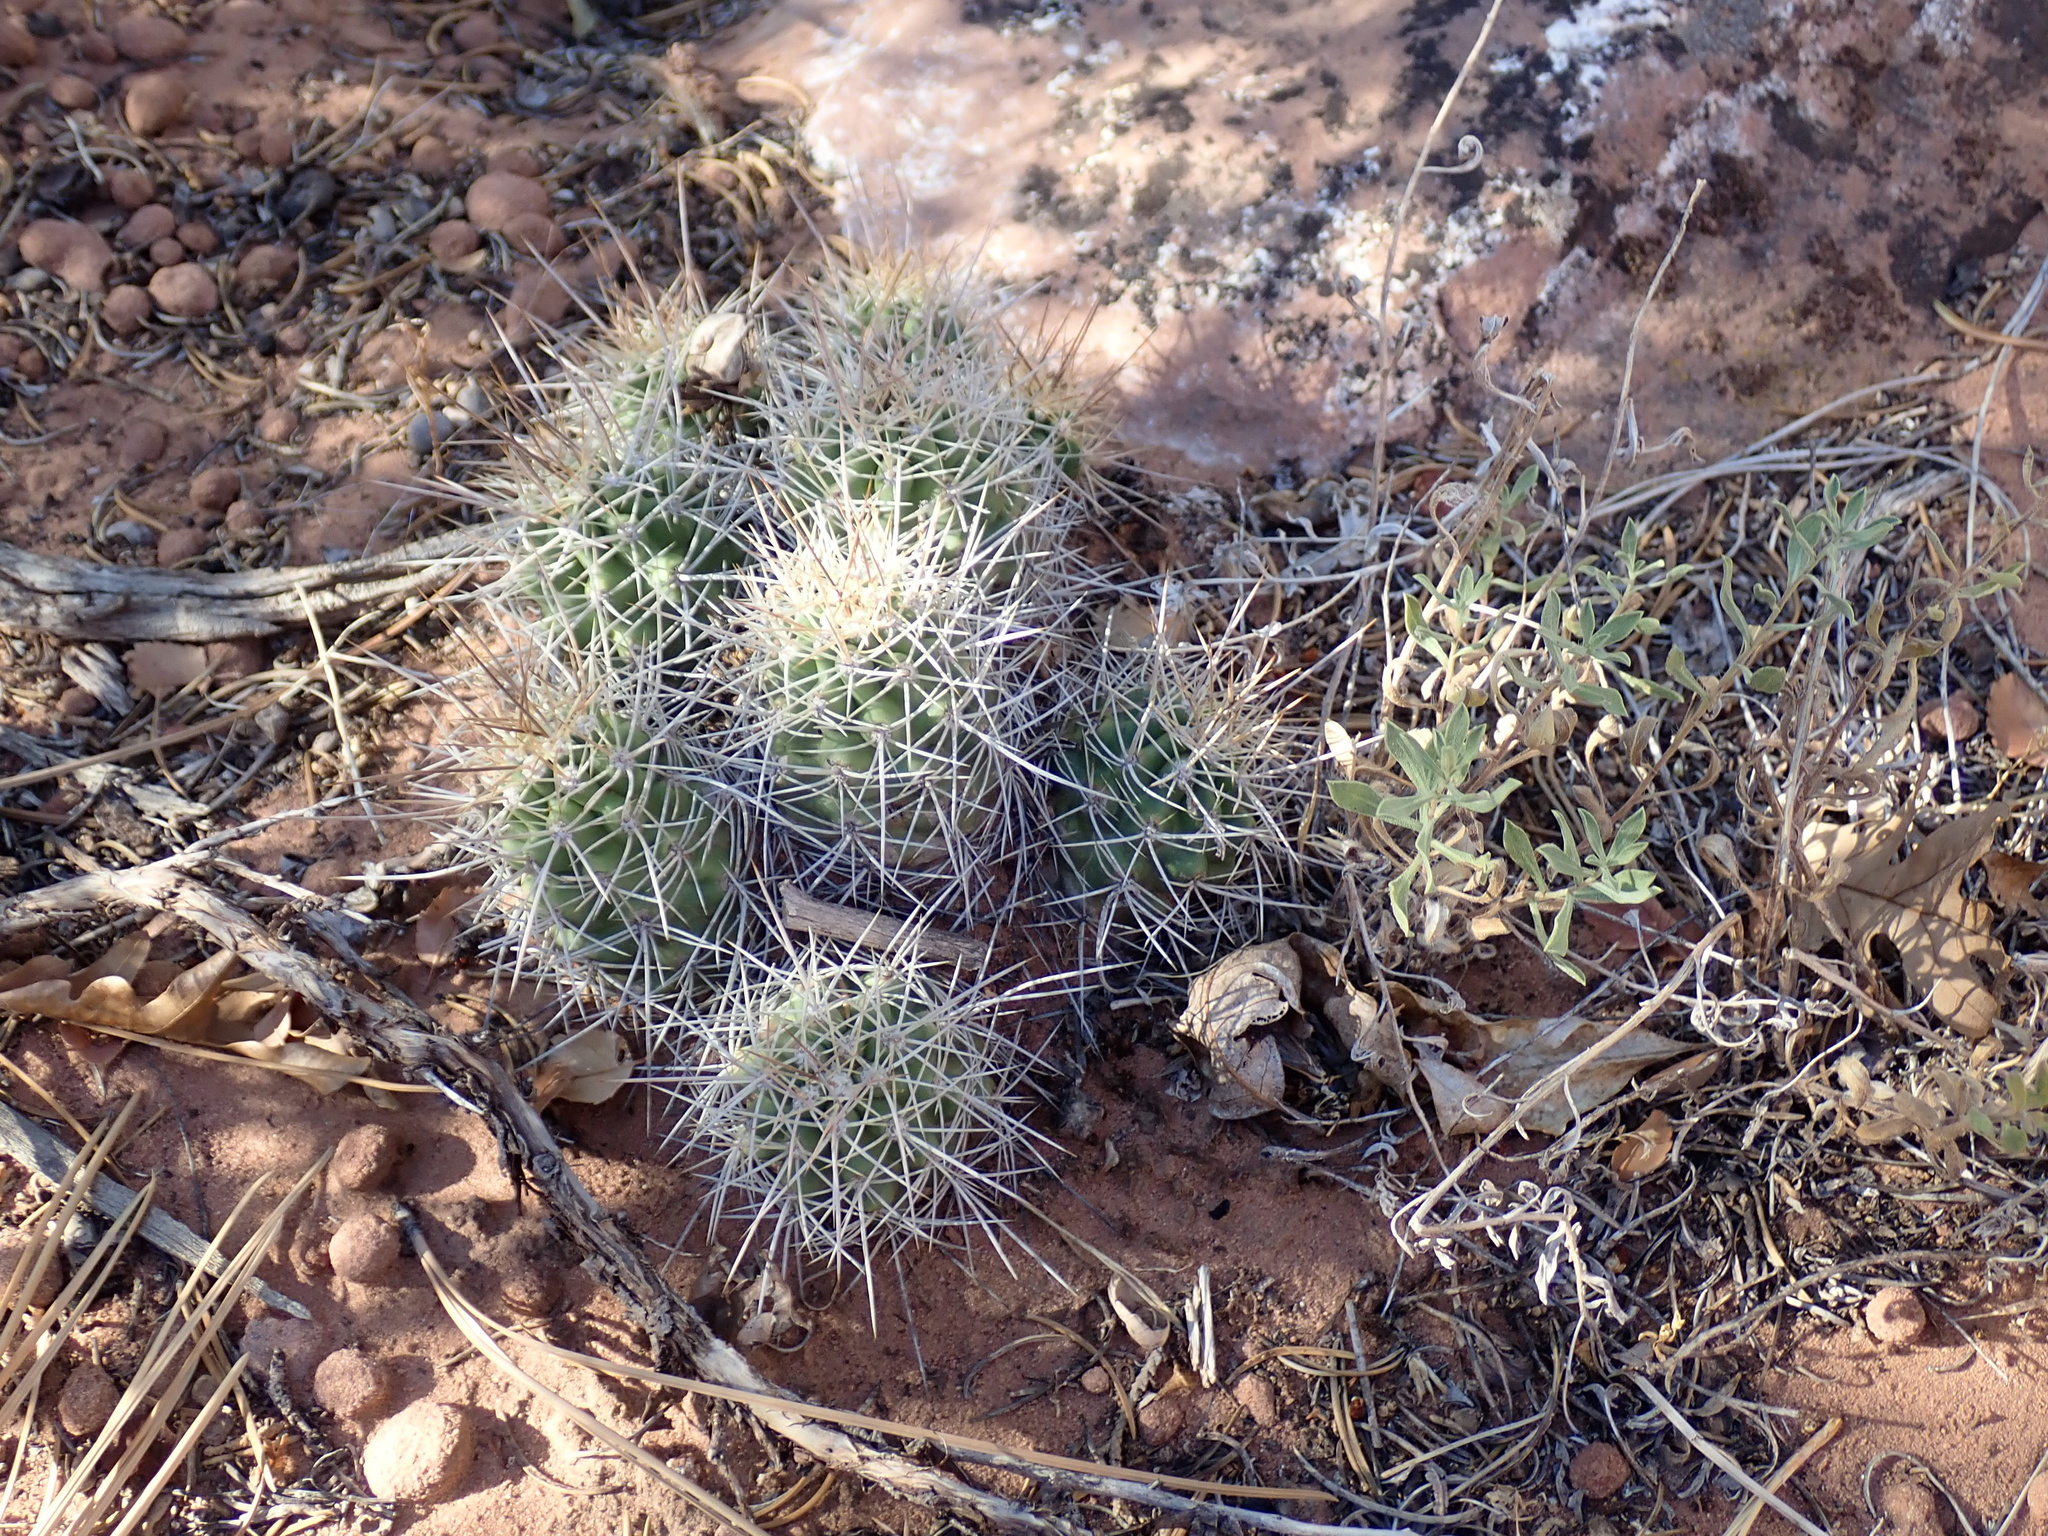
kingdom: Plantae
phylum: Tracheophyta
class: Magnoliopsida
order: Caryophyllales
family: Cactaceae
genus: Echinocereus
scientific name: Echinocereus triglochidiatus
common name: Claretcup hedgehog
